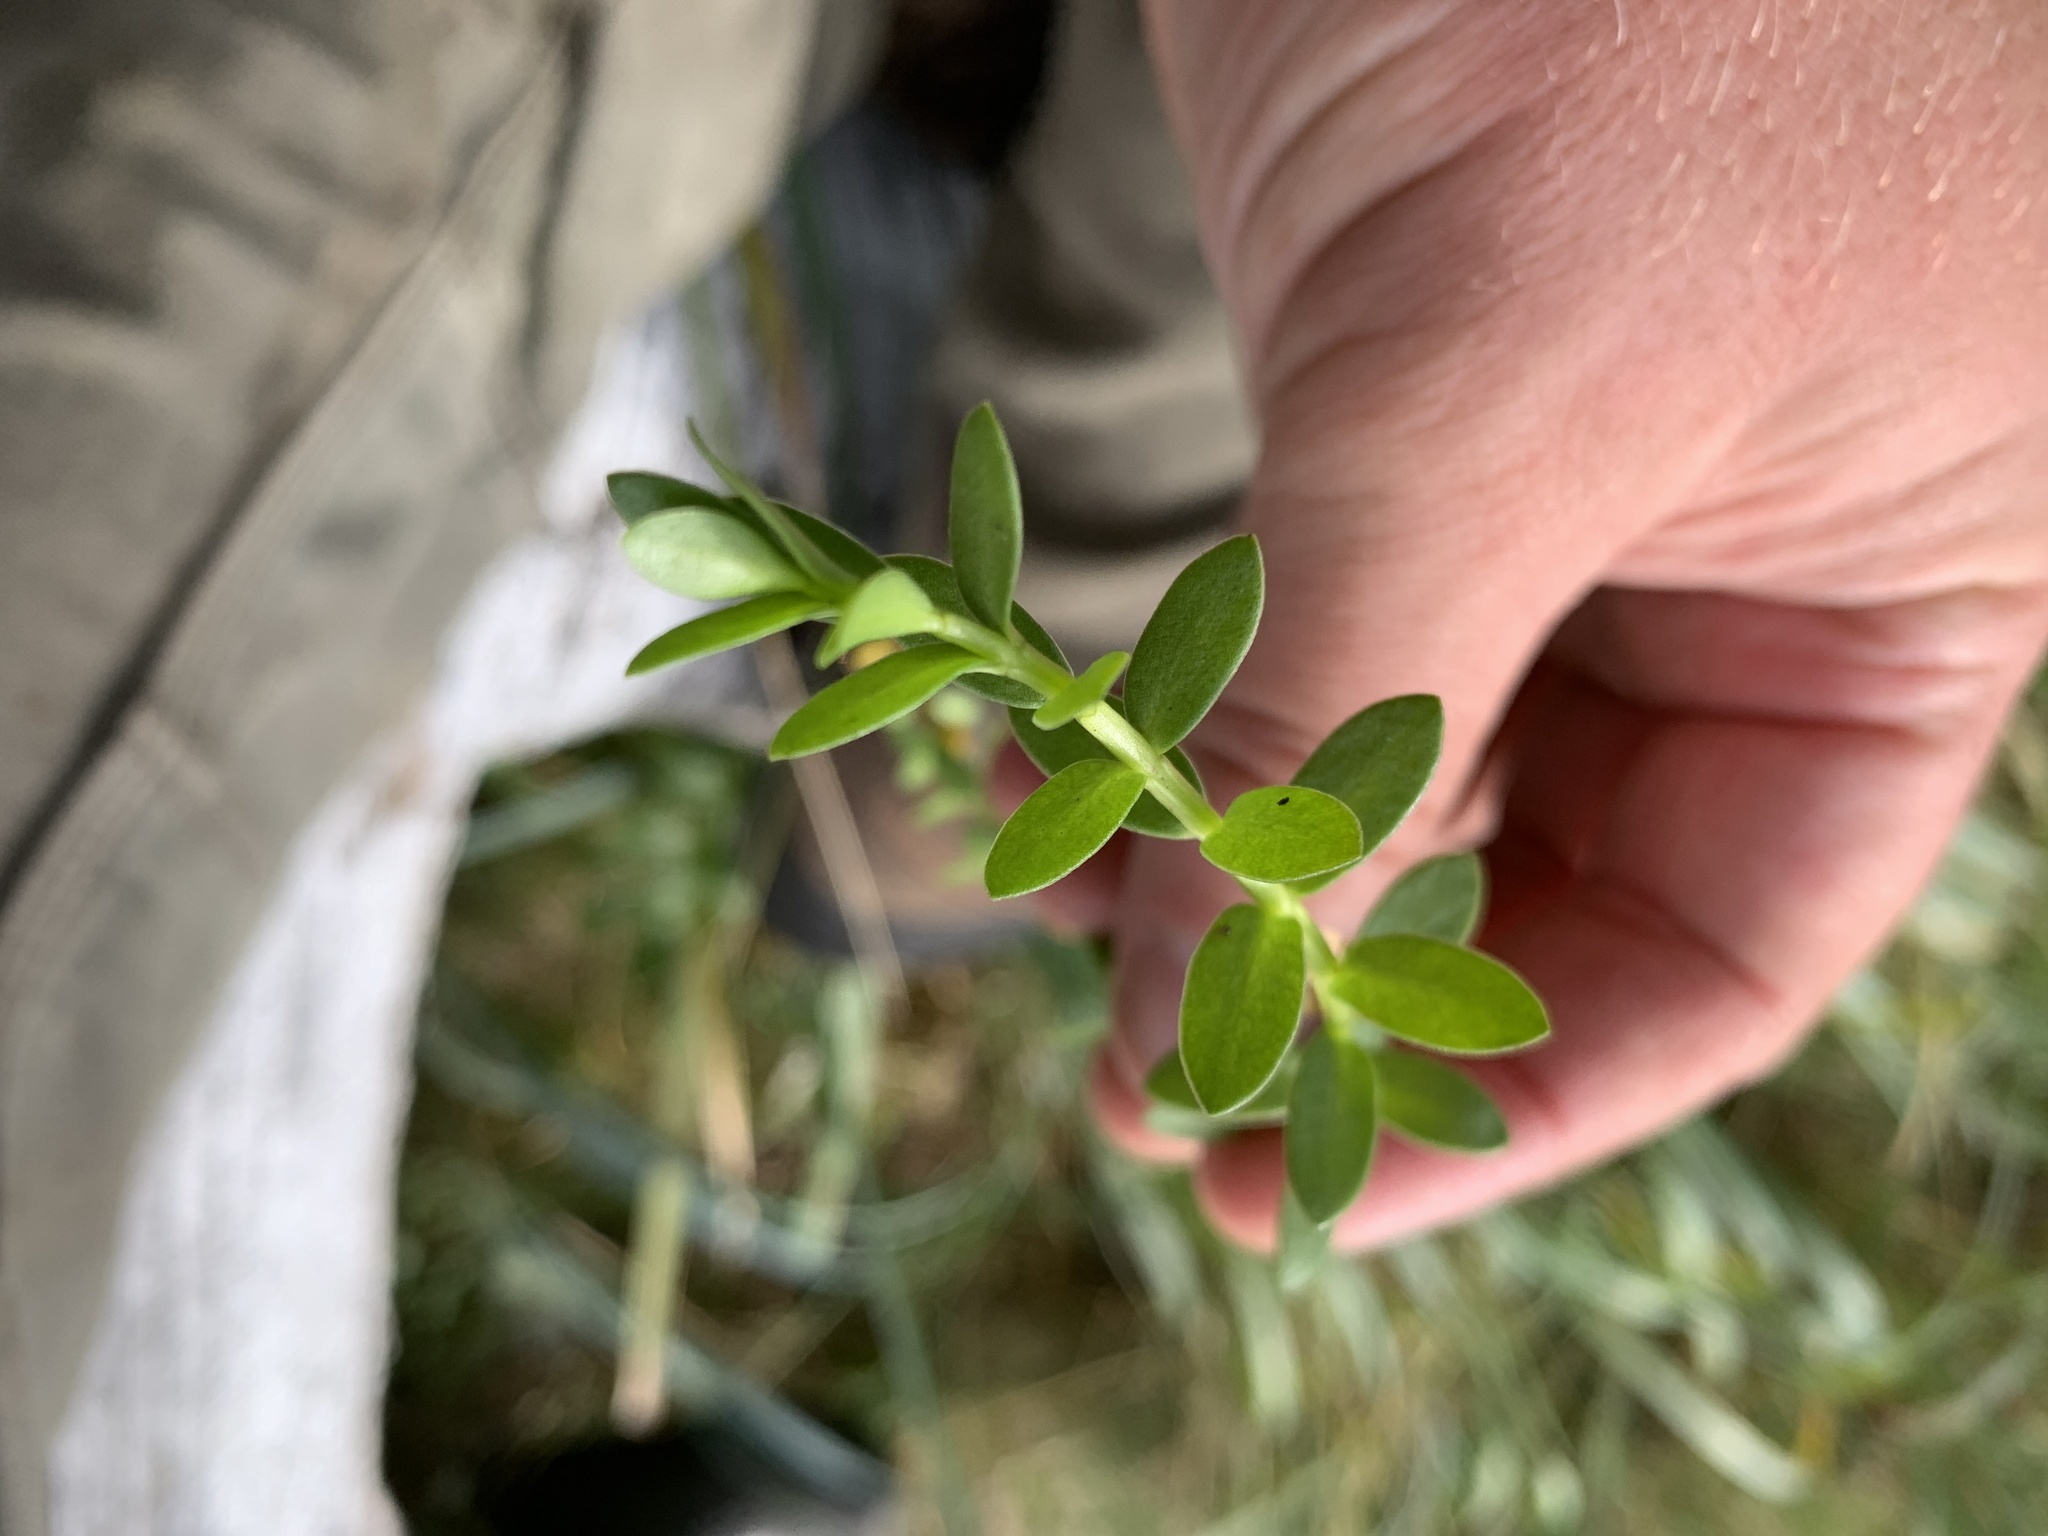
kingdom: Plantae
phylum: Tracheophyta
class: Magnoliopsida
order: Ericales
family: Primulaceae
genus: Lysimachia
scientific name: Lysimachia maritima
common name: Sea milkwort
